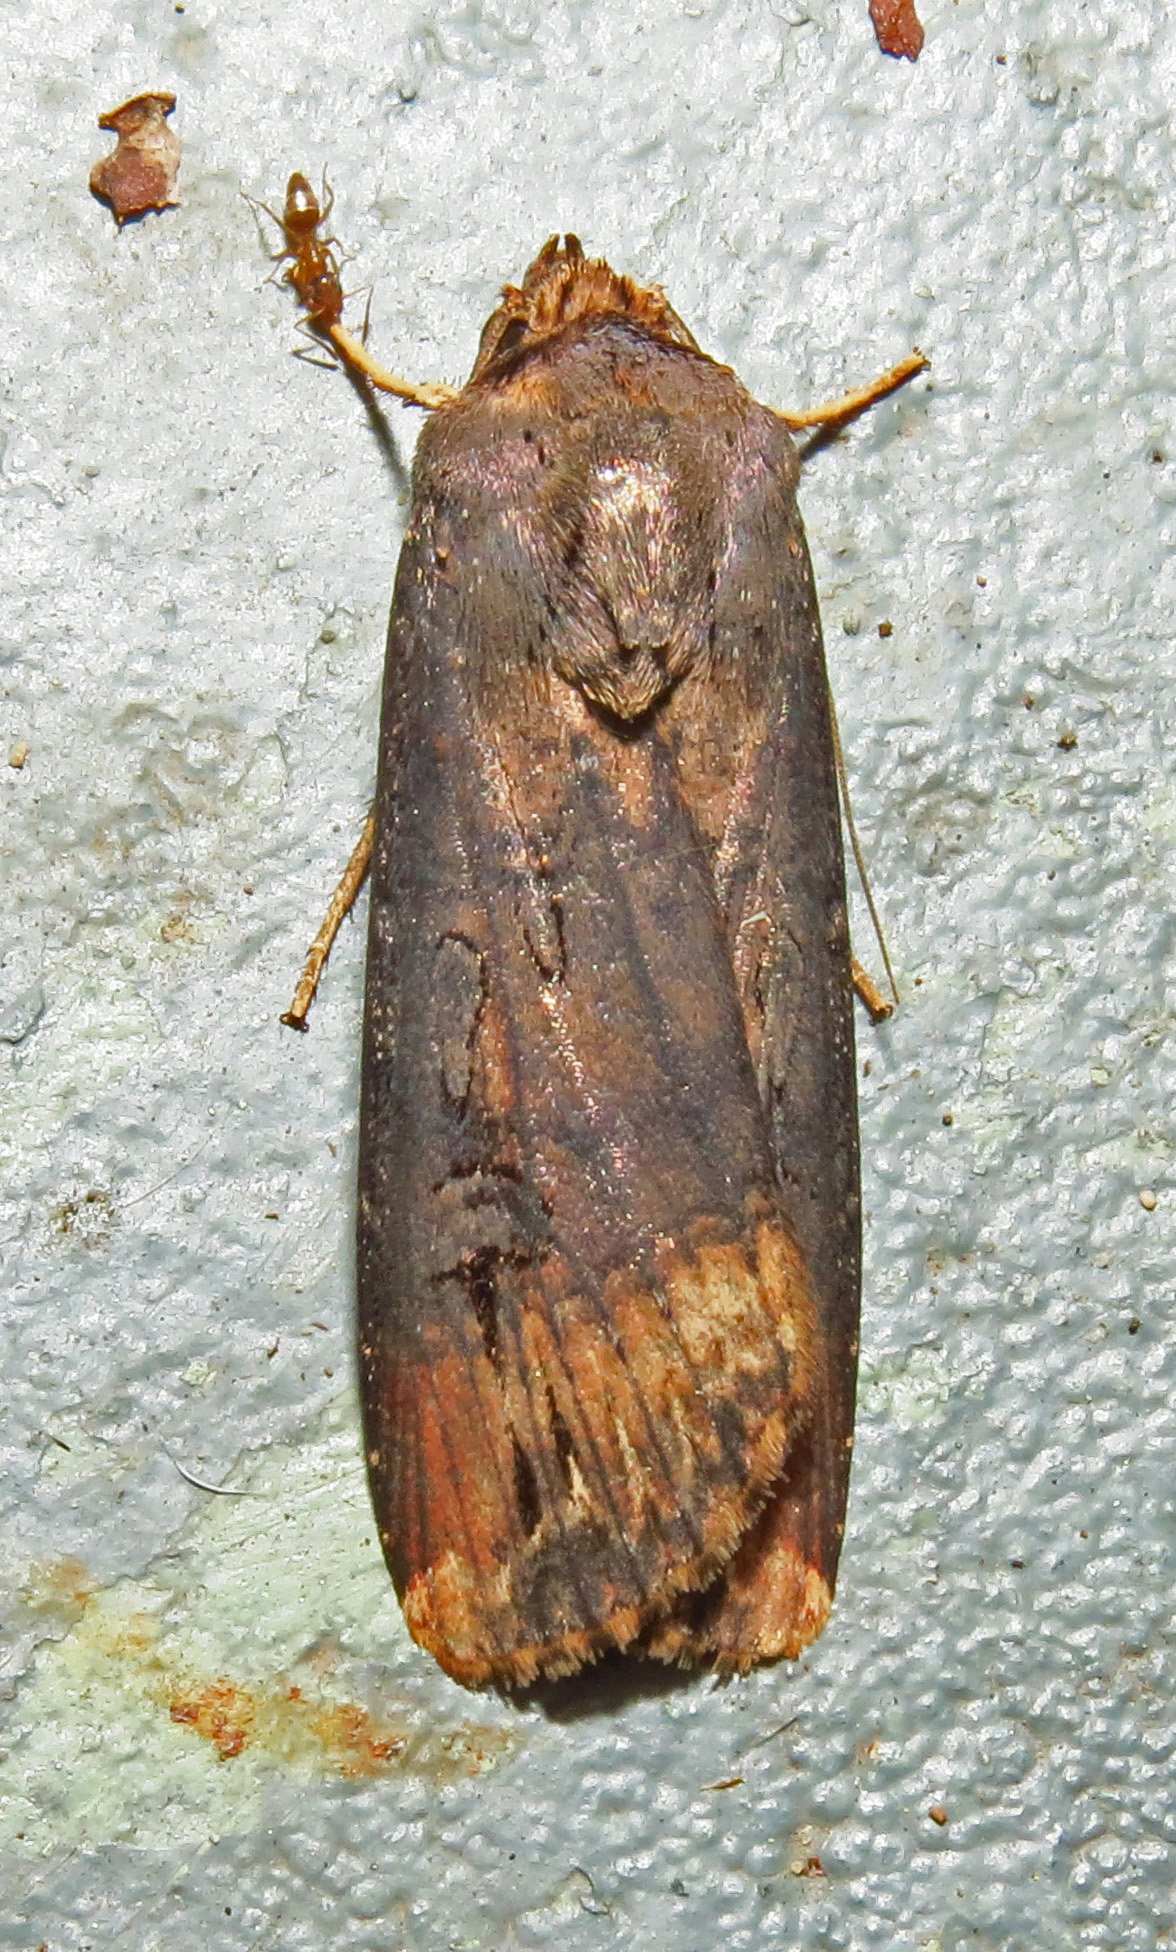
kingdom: Animalia
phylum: Arthropoda
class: Insecta
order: Lepidoptera
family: Noctuidae
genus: Agrotis
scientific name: Agrotis ipsilon
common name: Dark sword-grass
